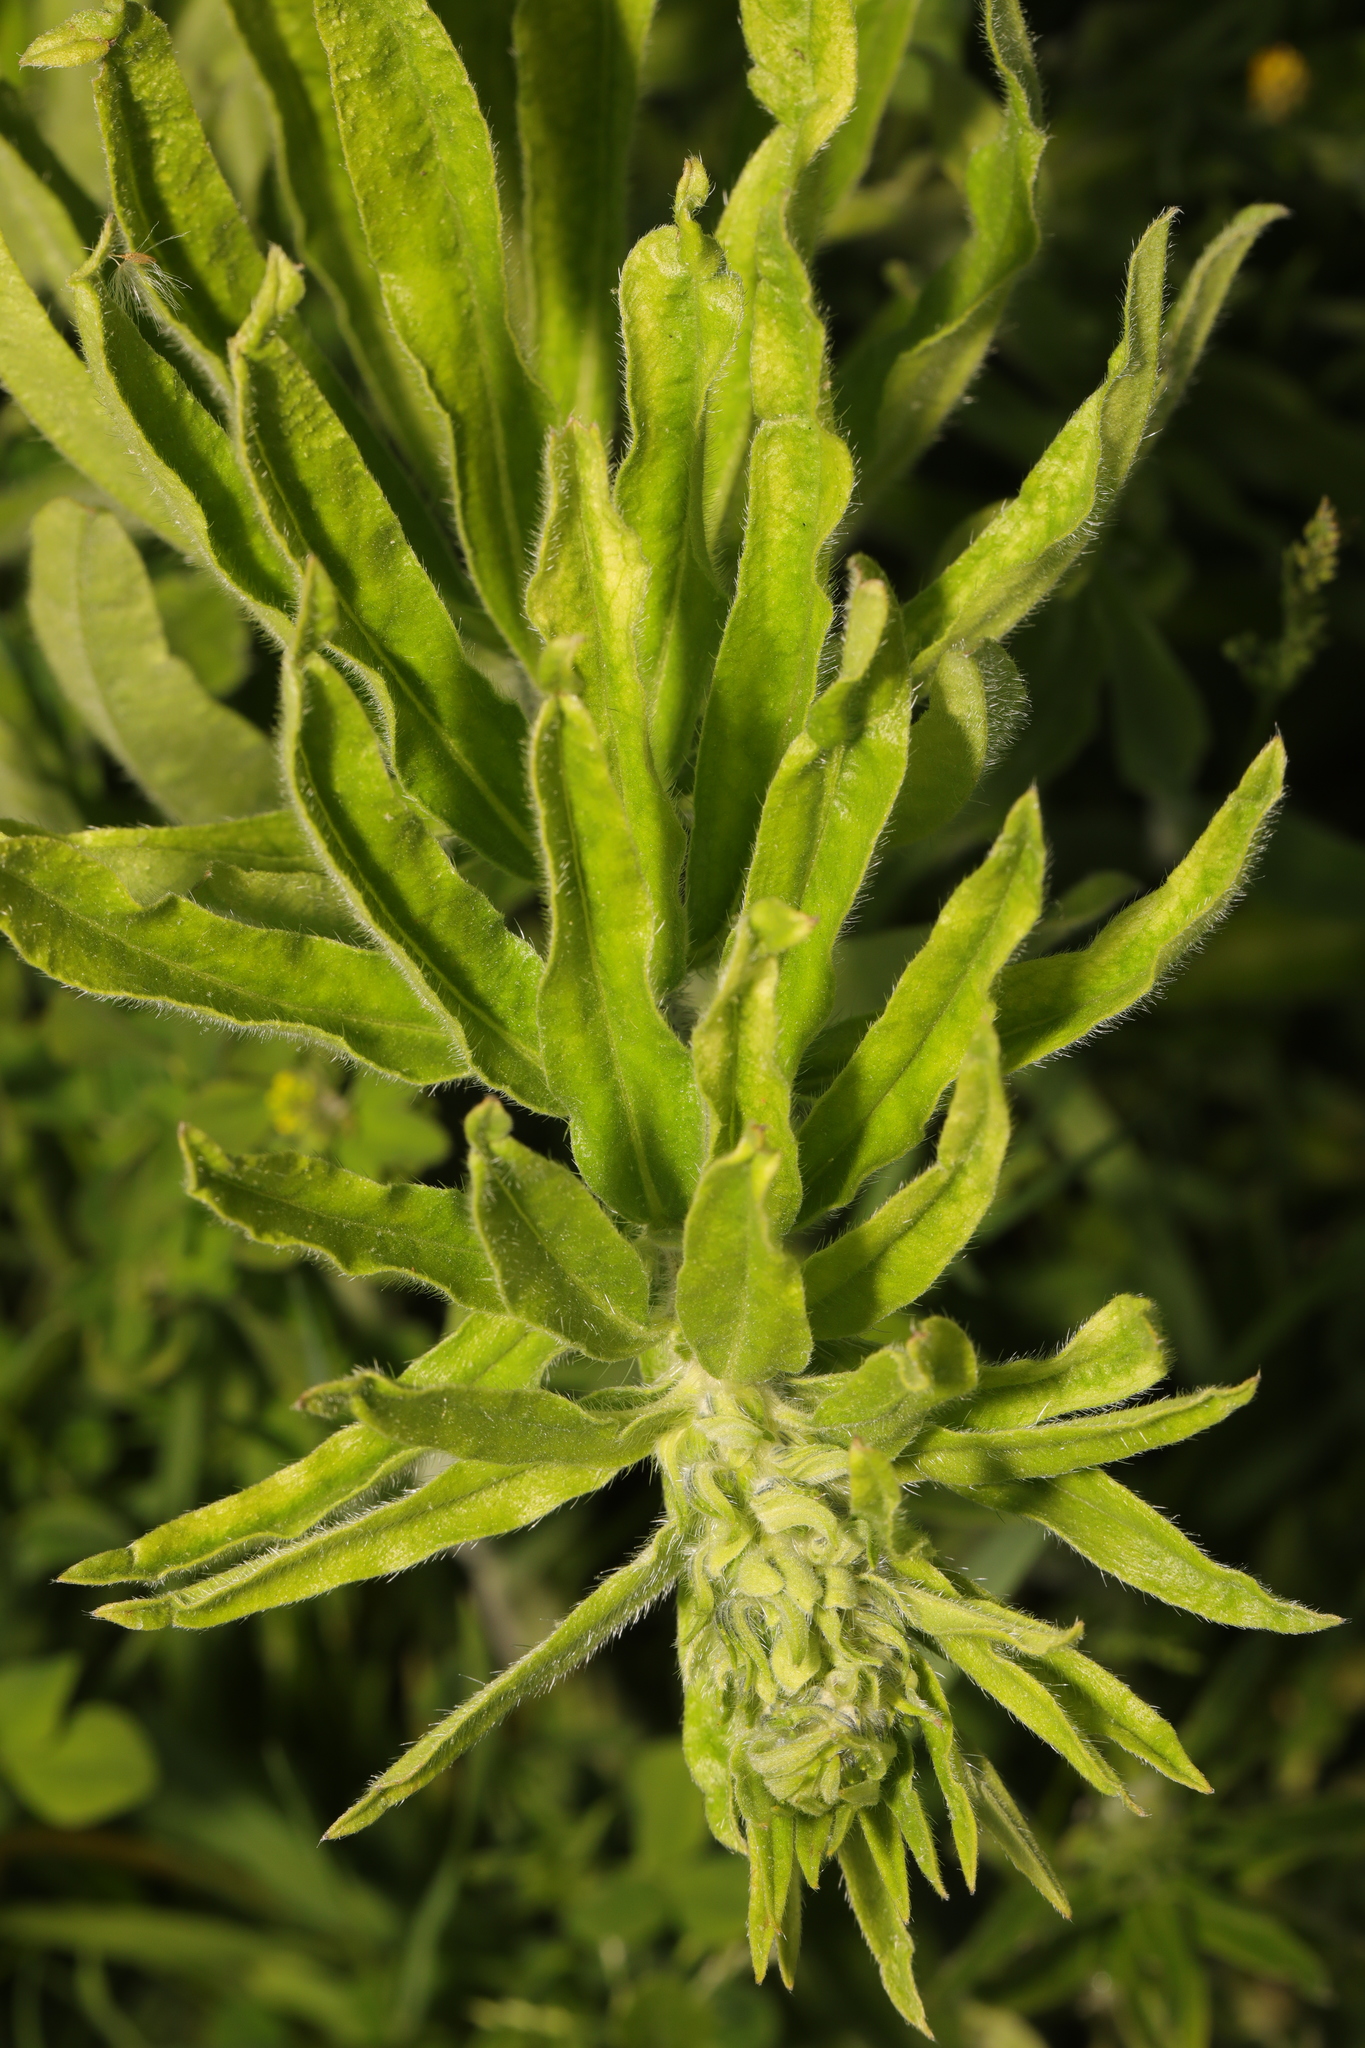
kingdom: Plantae
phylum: Tracheophyta
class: Magnoliopsida
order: Boraginales
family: Boraginaceae
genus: Echium
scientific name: Echium vulgare
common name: Common viper's bugloss
